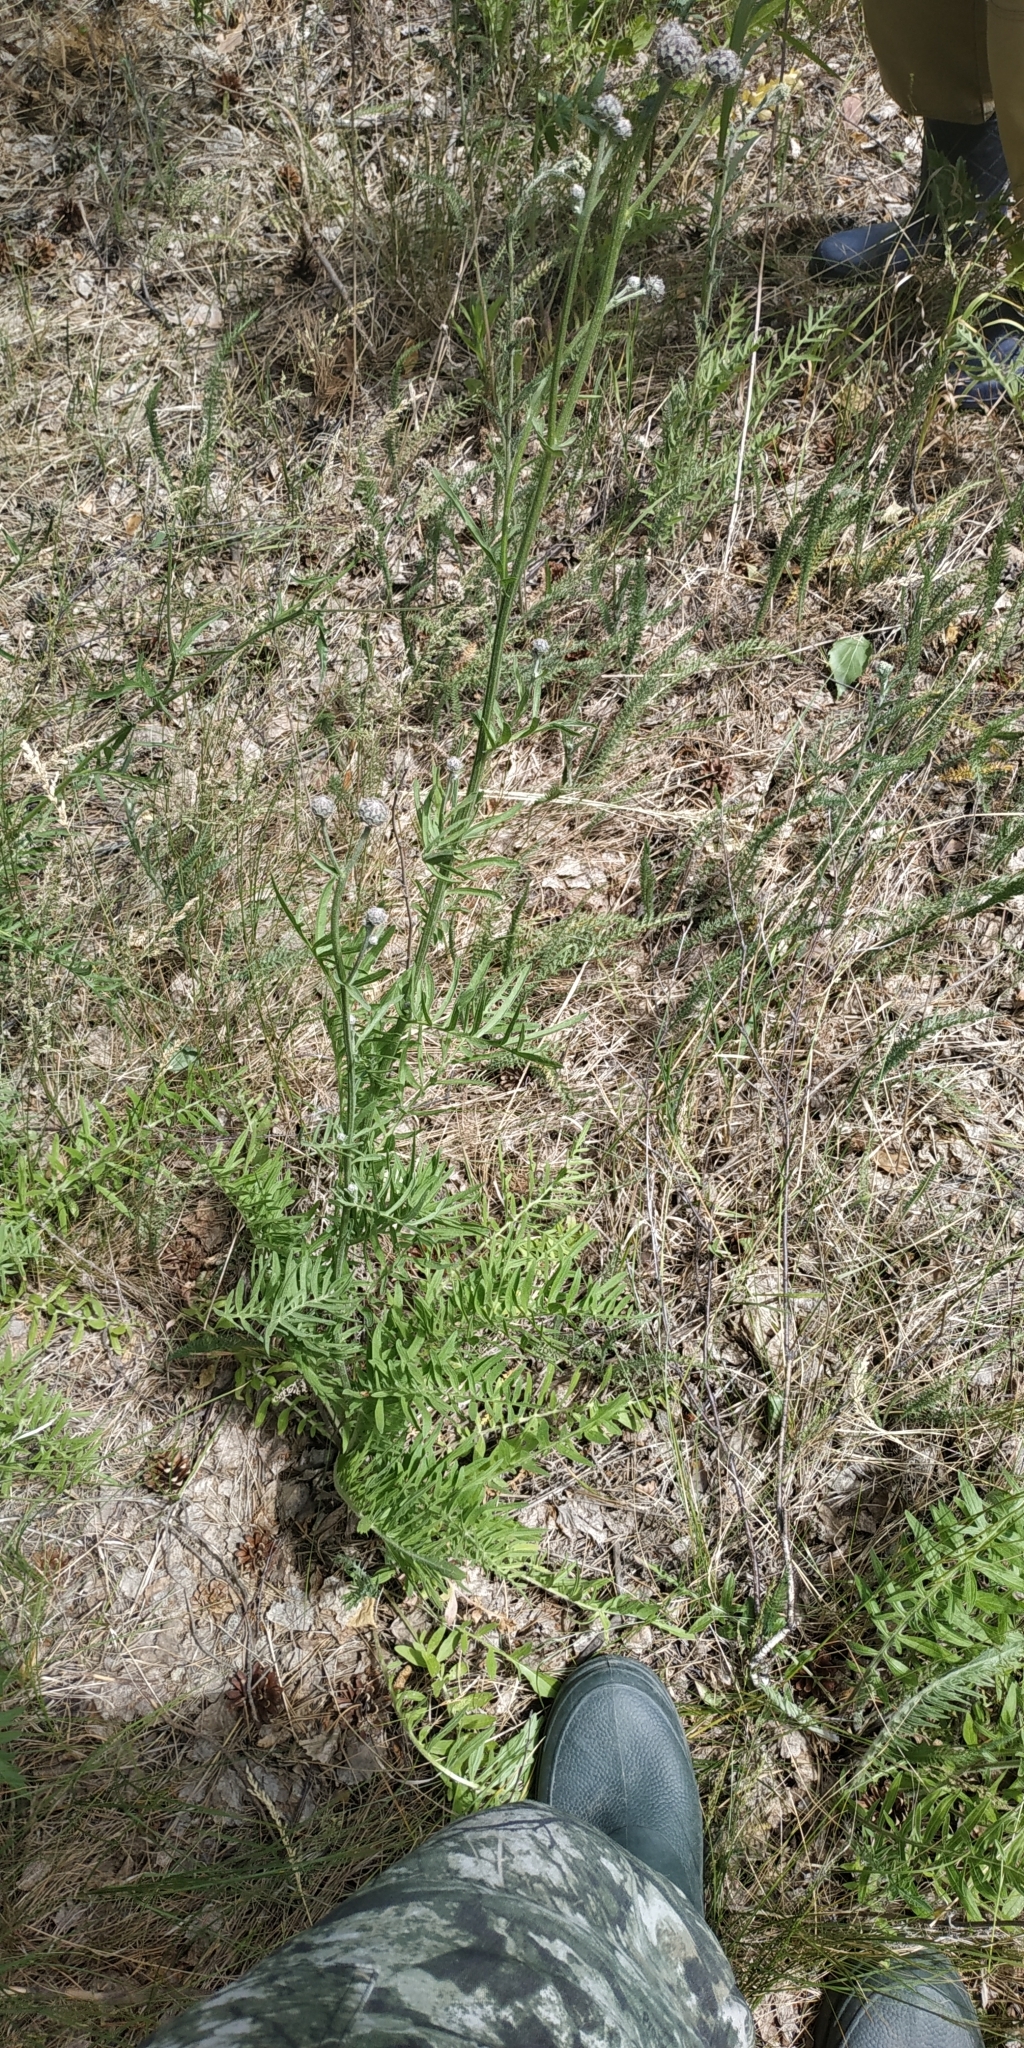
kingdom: Plantae
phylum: Tracheophyta
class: Magnoliopsida
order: Asterales
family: Asteraceae
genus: Centaurea
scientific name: Centaurea scabiosa
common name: Greater knapweed
